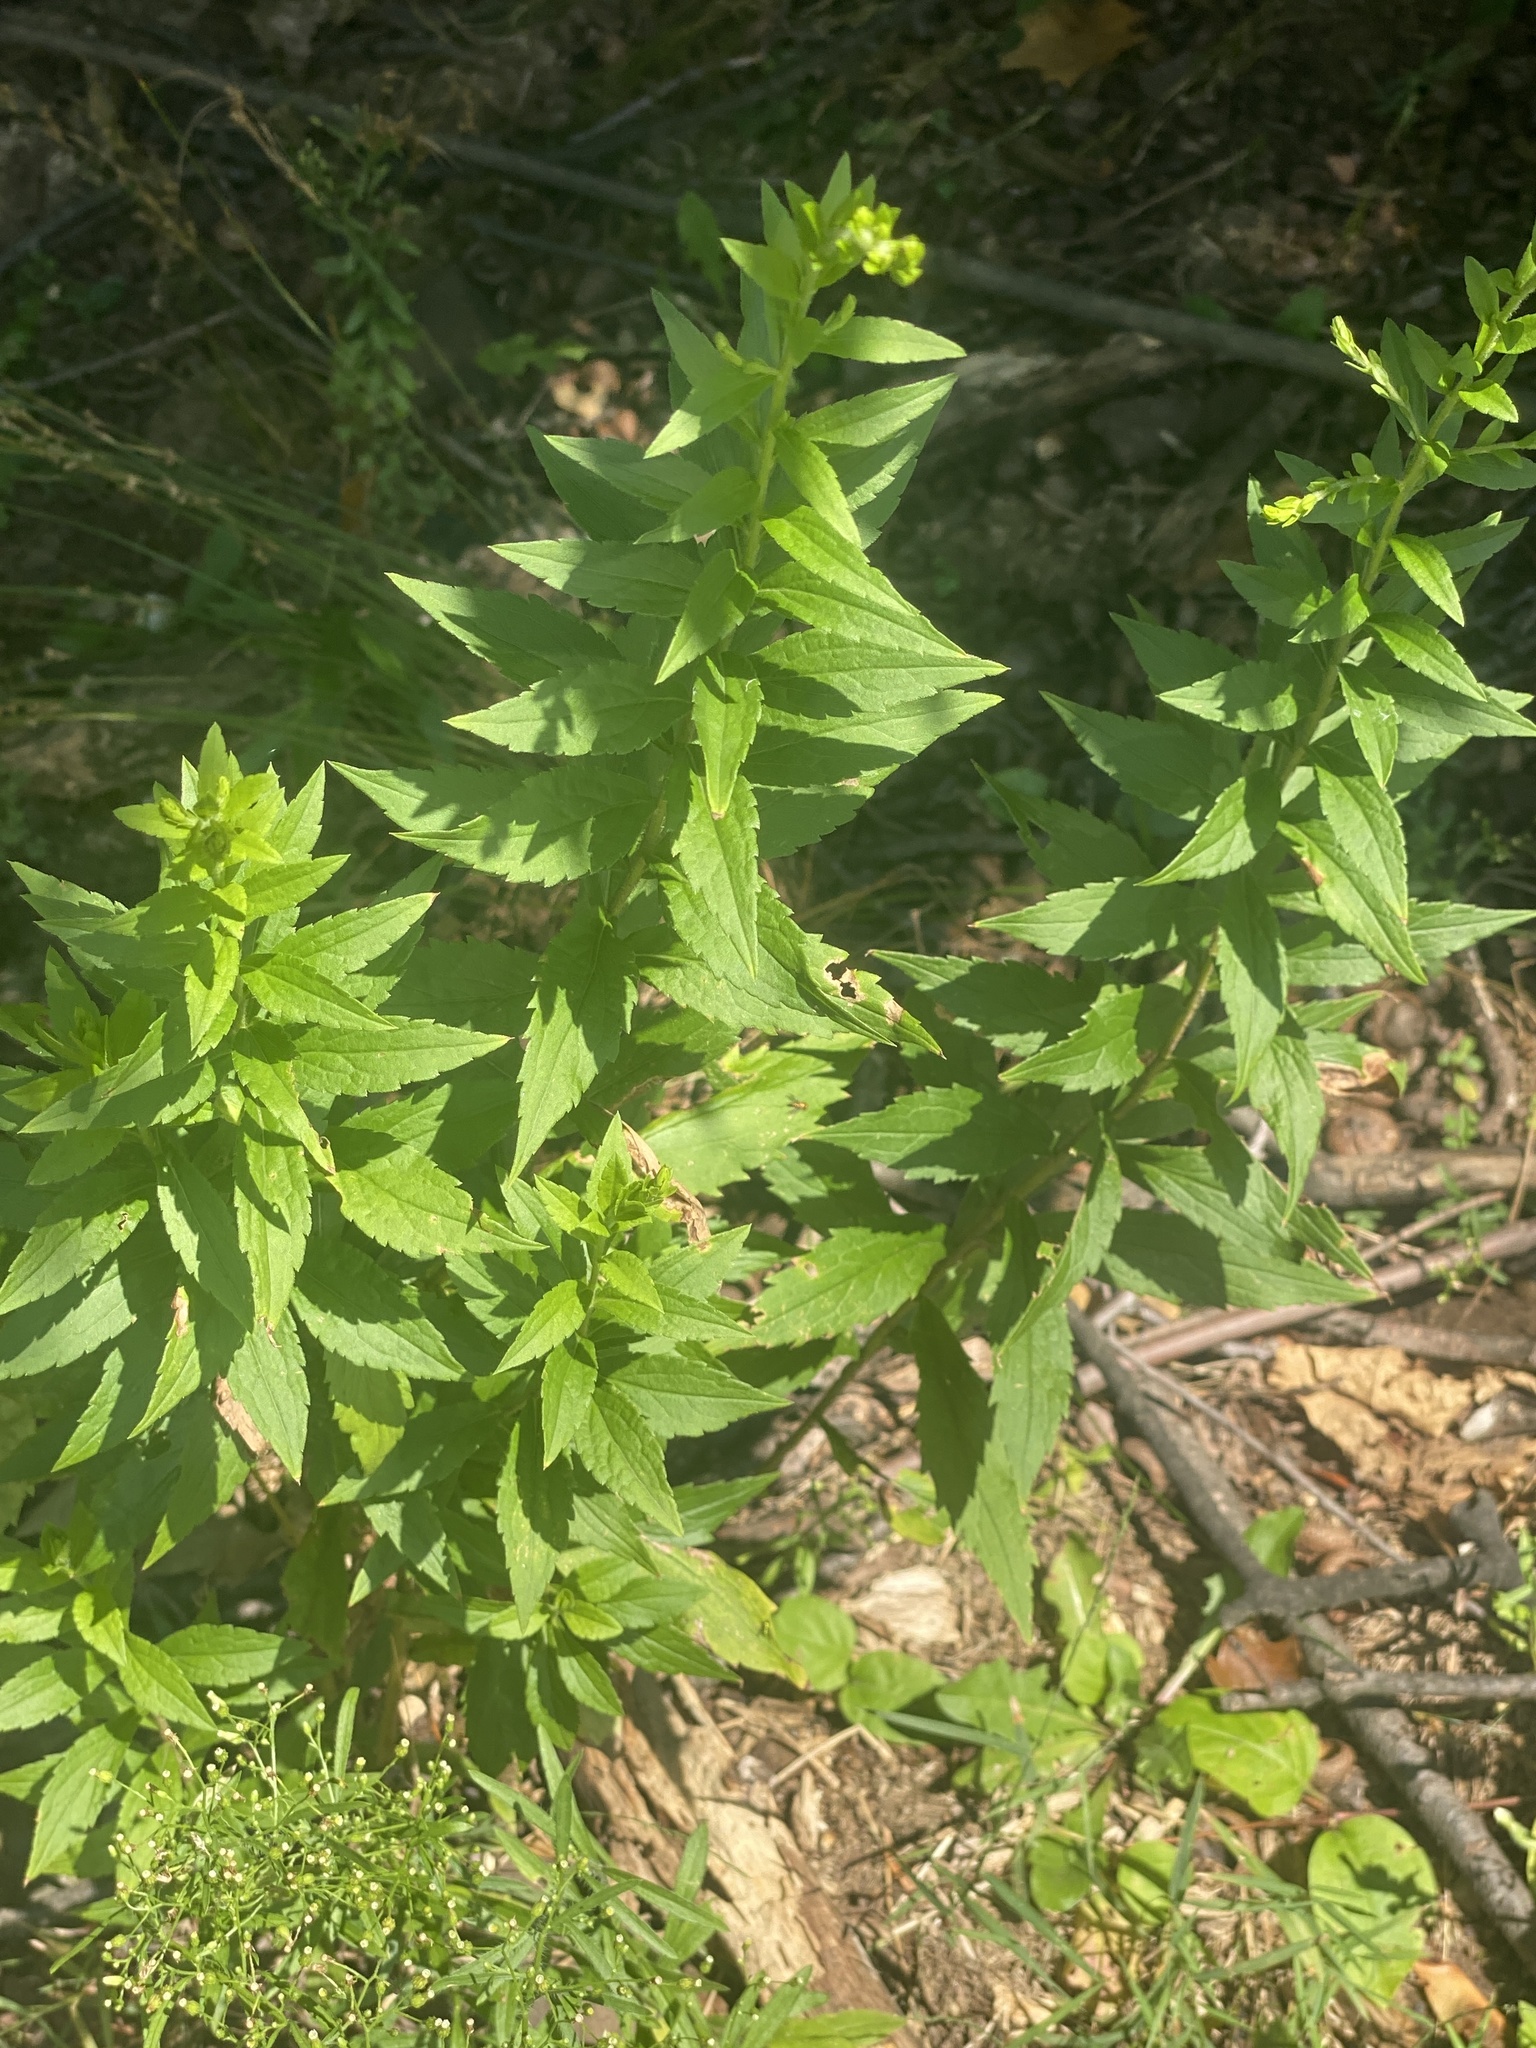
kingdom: Plantae
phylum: Tracheophyta
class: Magnoliopsida
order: Asterales
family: Asteraceae
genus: Solidago
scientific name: Solidago rugosa
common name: Rough-stemmed goldenrod
